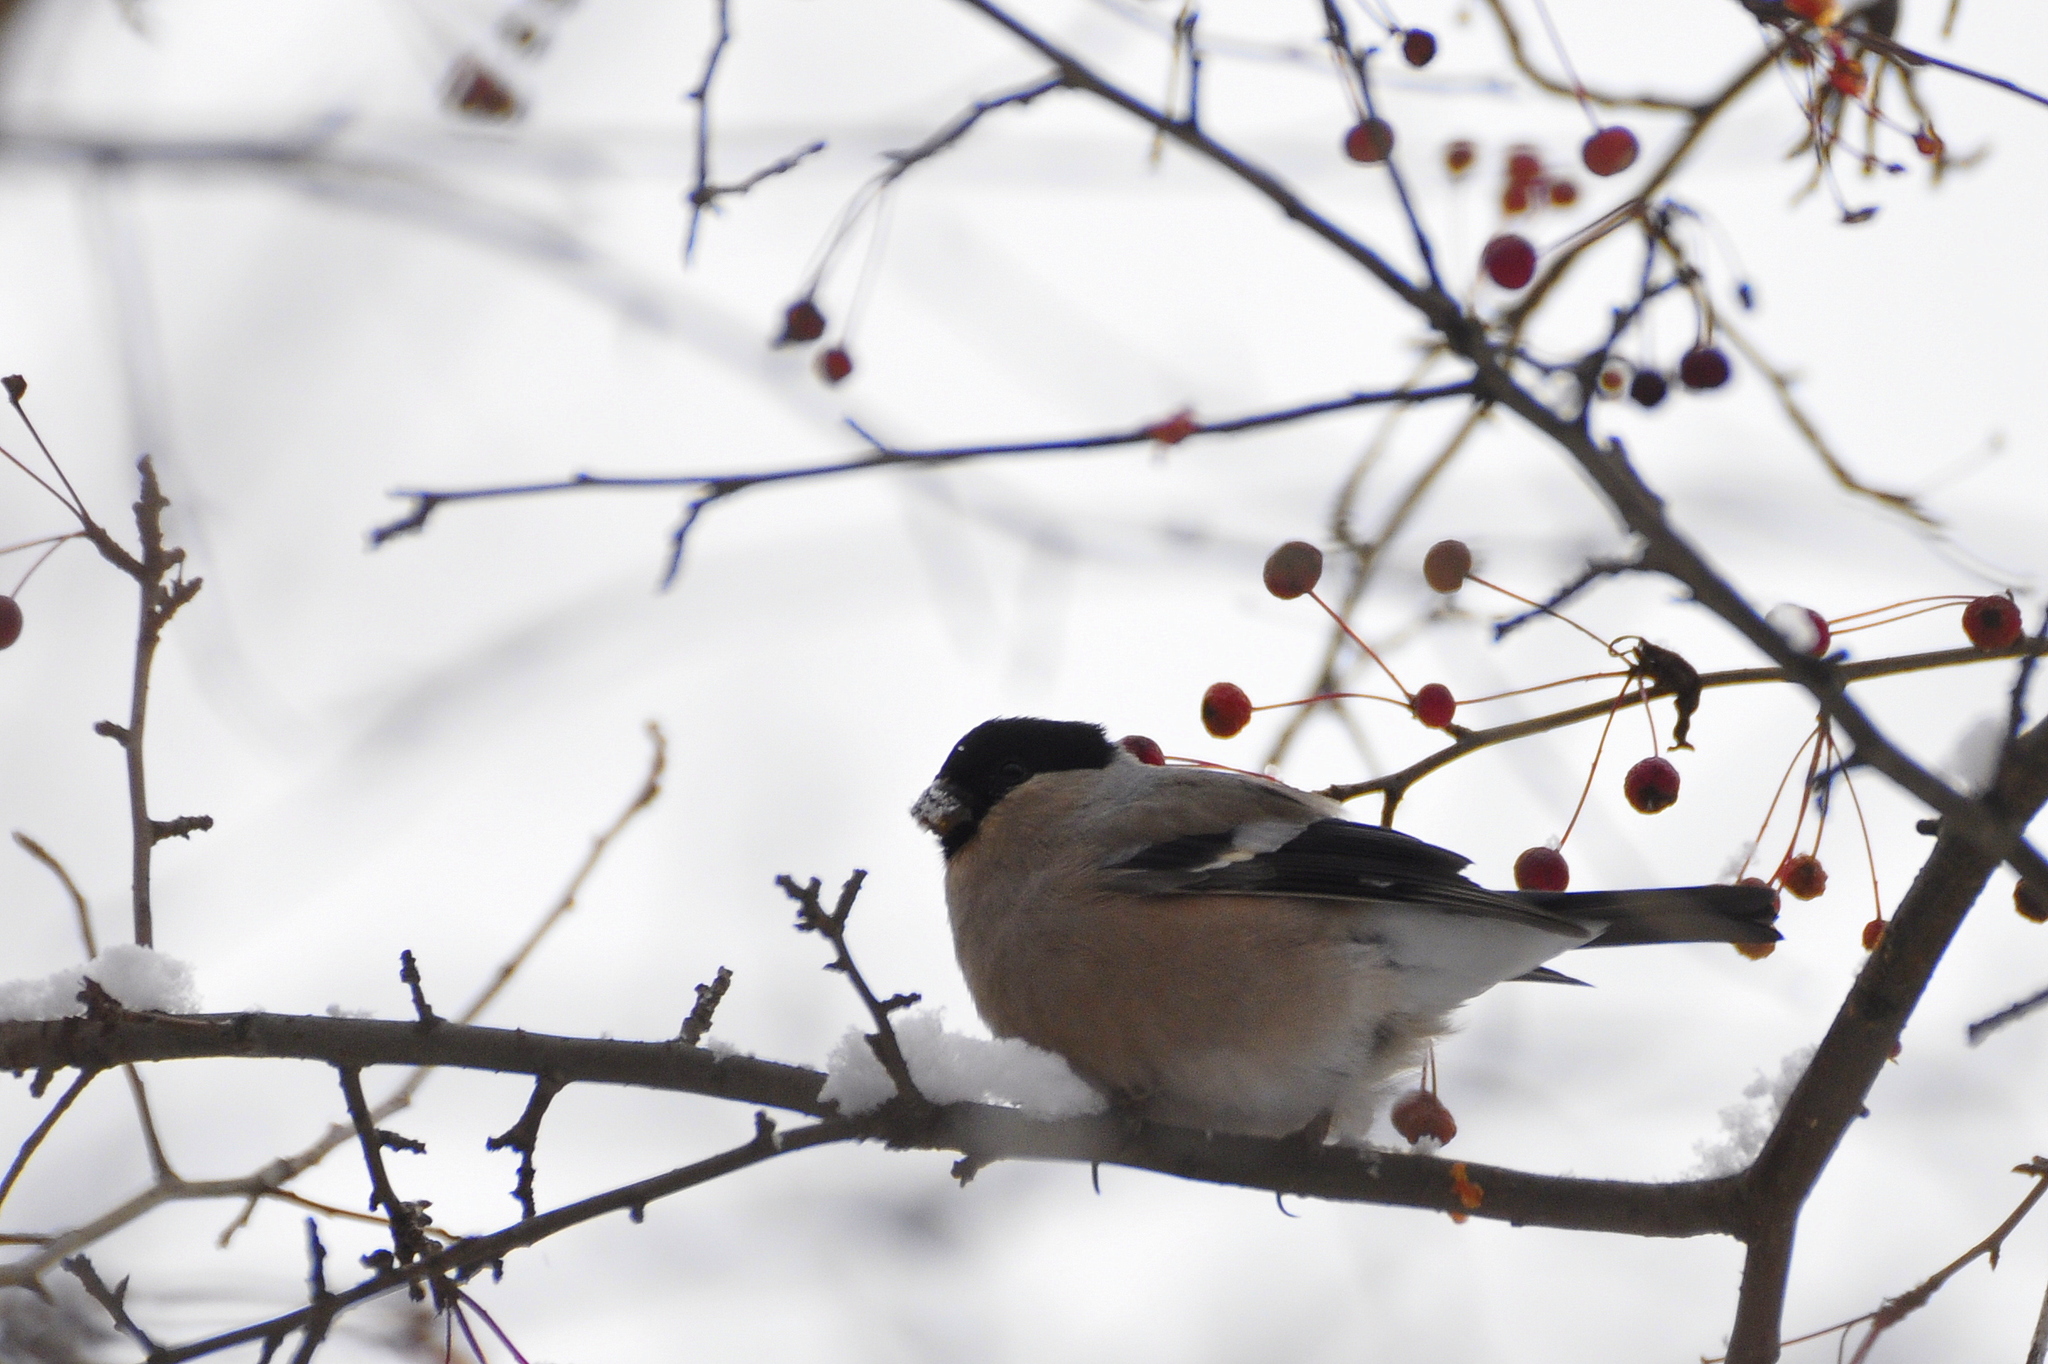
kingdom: Animalia
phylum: Chordata
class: Aves
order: Passeriformes
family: Fringillidae
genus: Pyrrhula
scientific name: Pyrrhula pyrrhula
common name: Eurasian bullfinch
